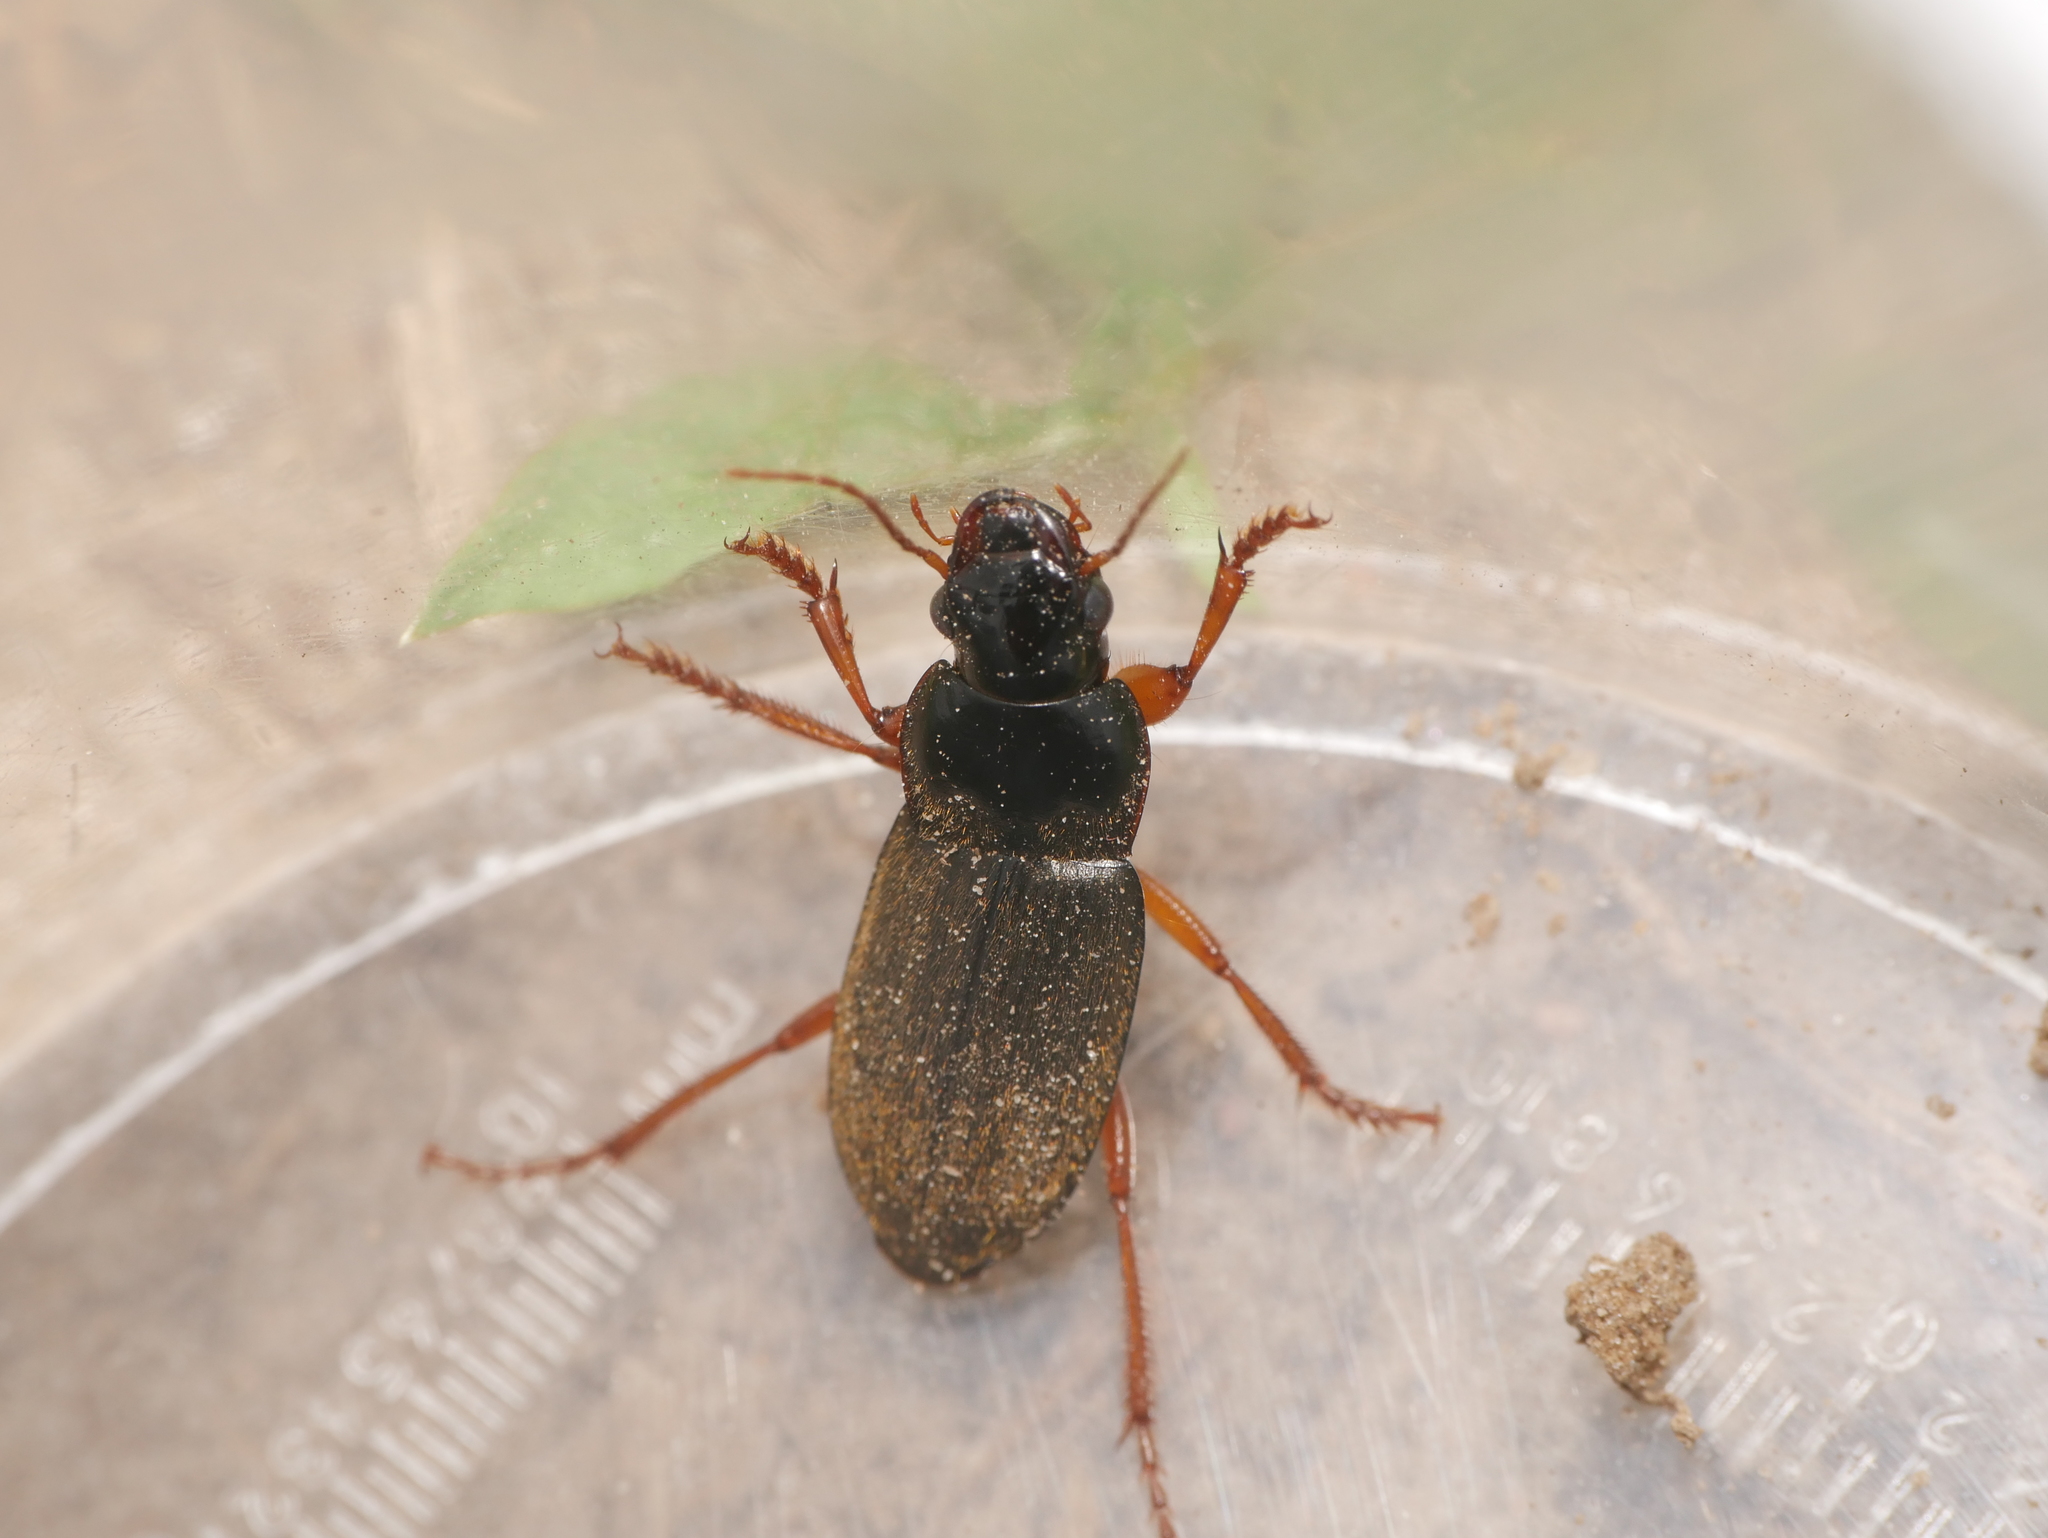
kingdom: Animalia
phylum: Arthropoda
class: Insecta
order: Coleoptera
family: Carabidae
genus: Harpalus
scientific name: Harpalus rufipes
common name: Strawberry harp ground beetle
